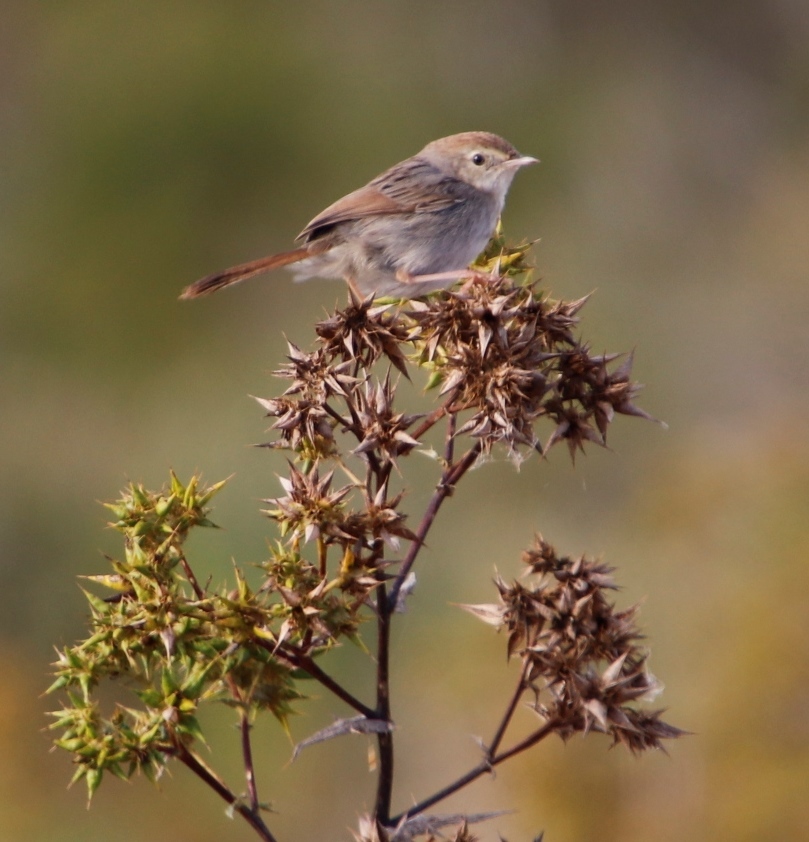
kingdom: Animalia
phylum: Chordata
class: Aves
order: Passeriformes
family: Cisticolidae
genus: Cisticola
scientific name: Cisticola fulvicapilla
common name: Neddicky
